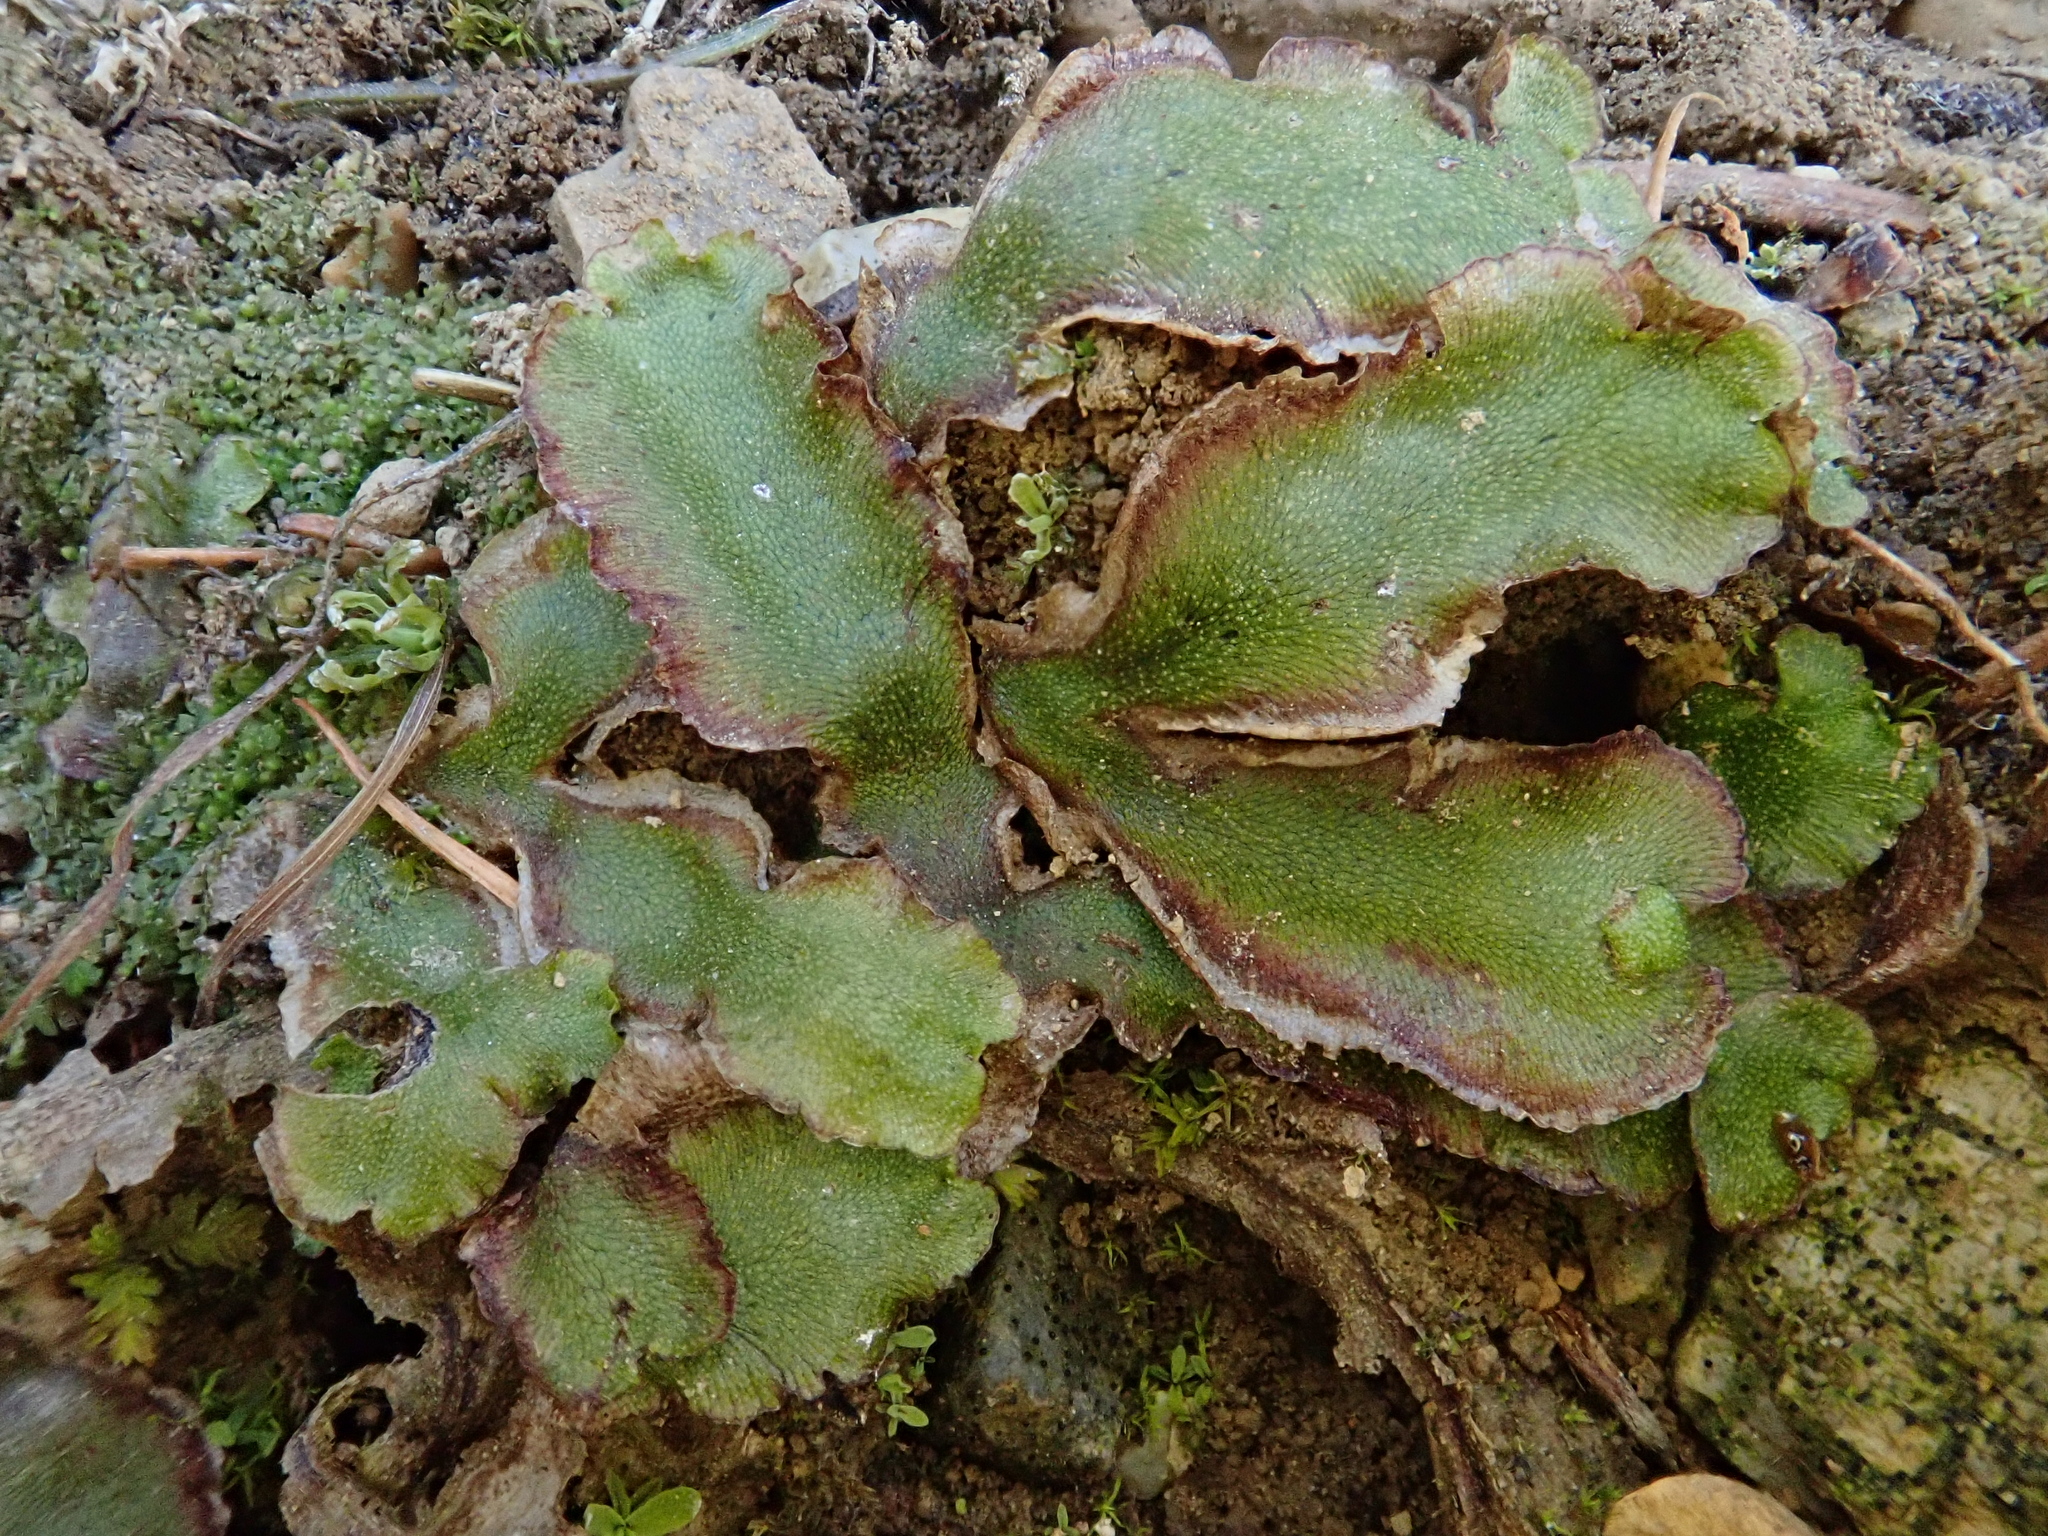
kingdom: Plantae
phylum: Marchantiophyta
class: Marchantiopsida
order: Marchantiales
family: Marchantiaceae
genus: Marchantia
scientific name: Marchantia quadrata
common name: Narrow mushroom-headed liverwort
